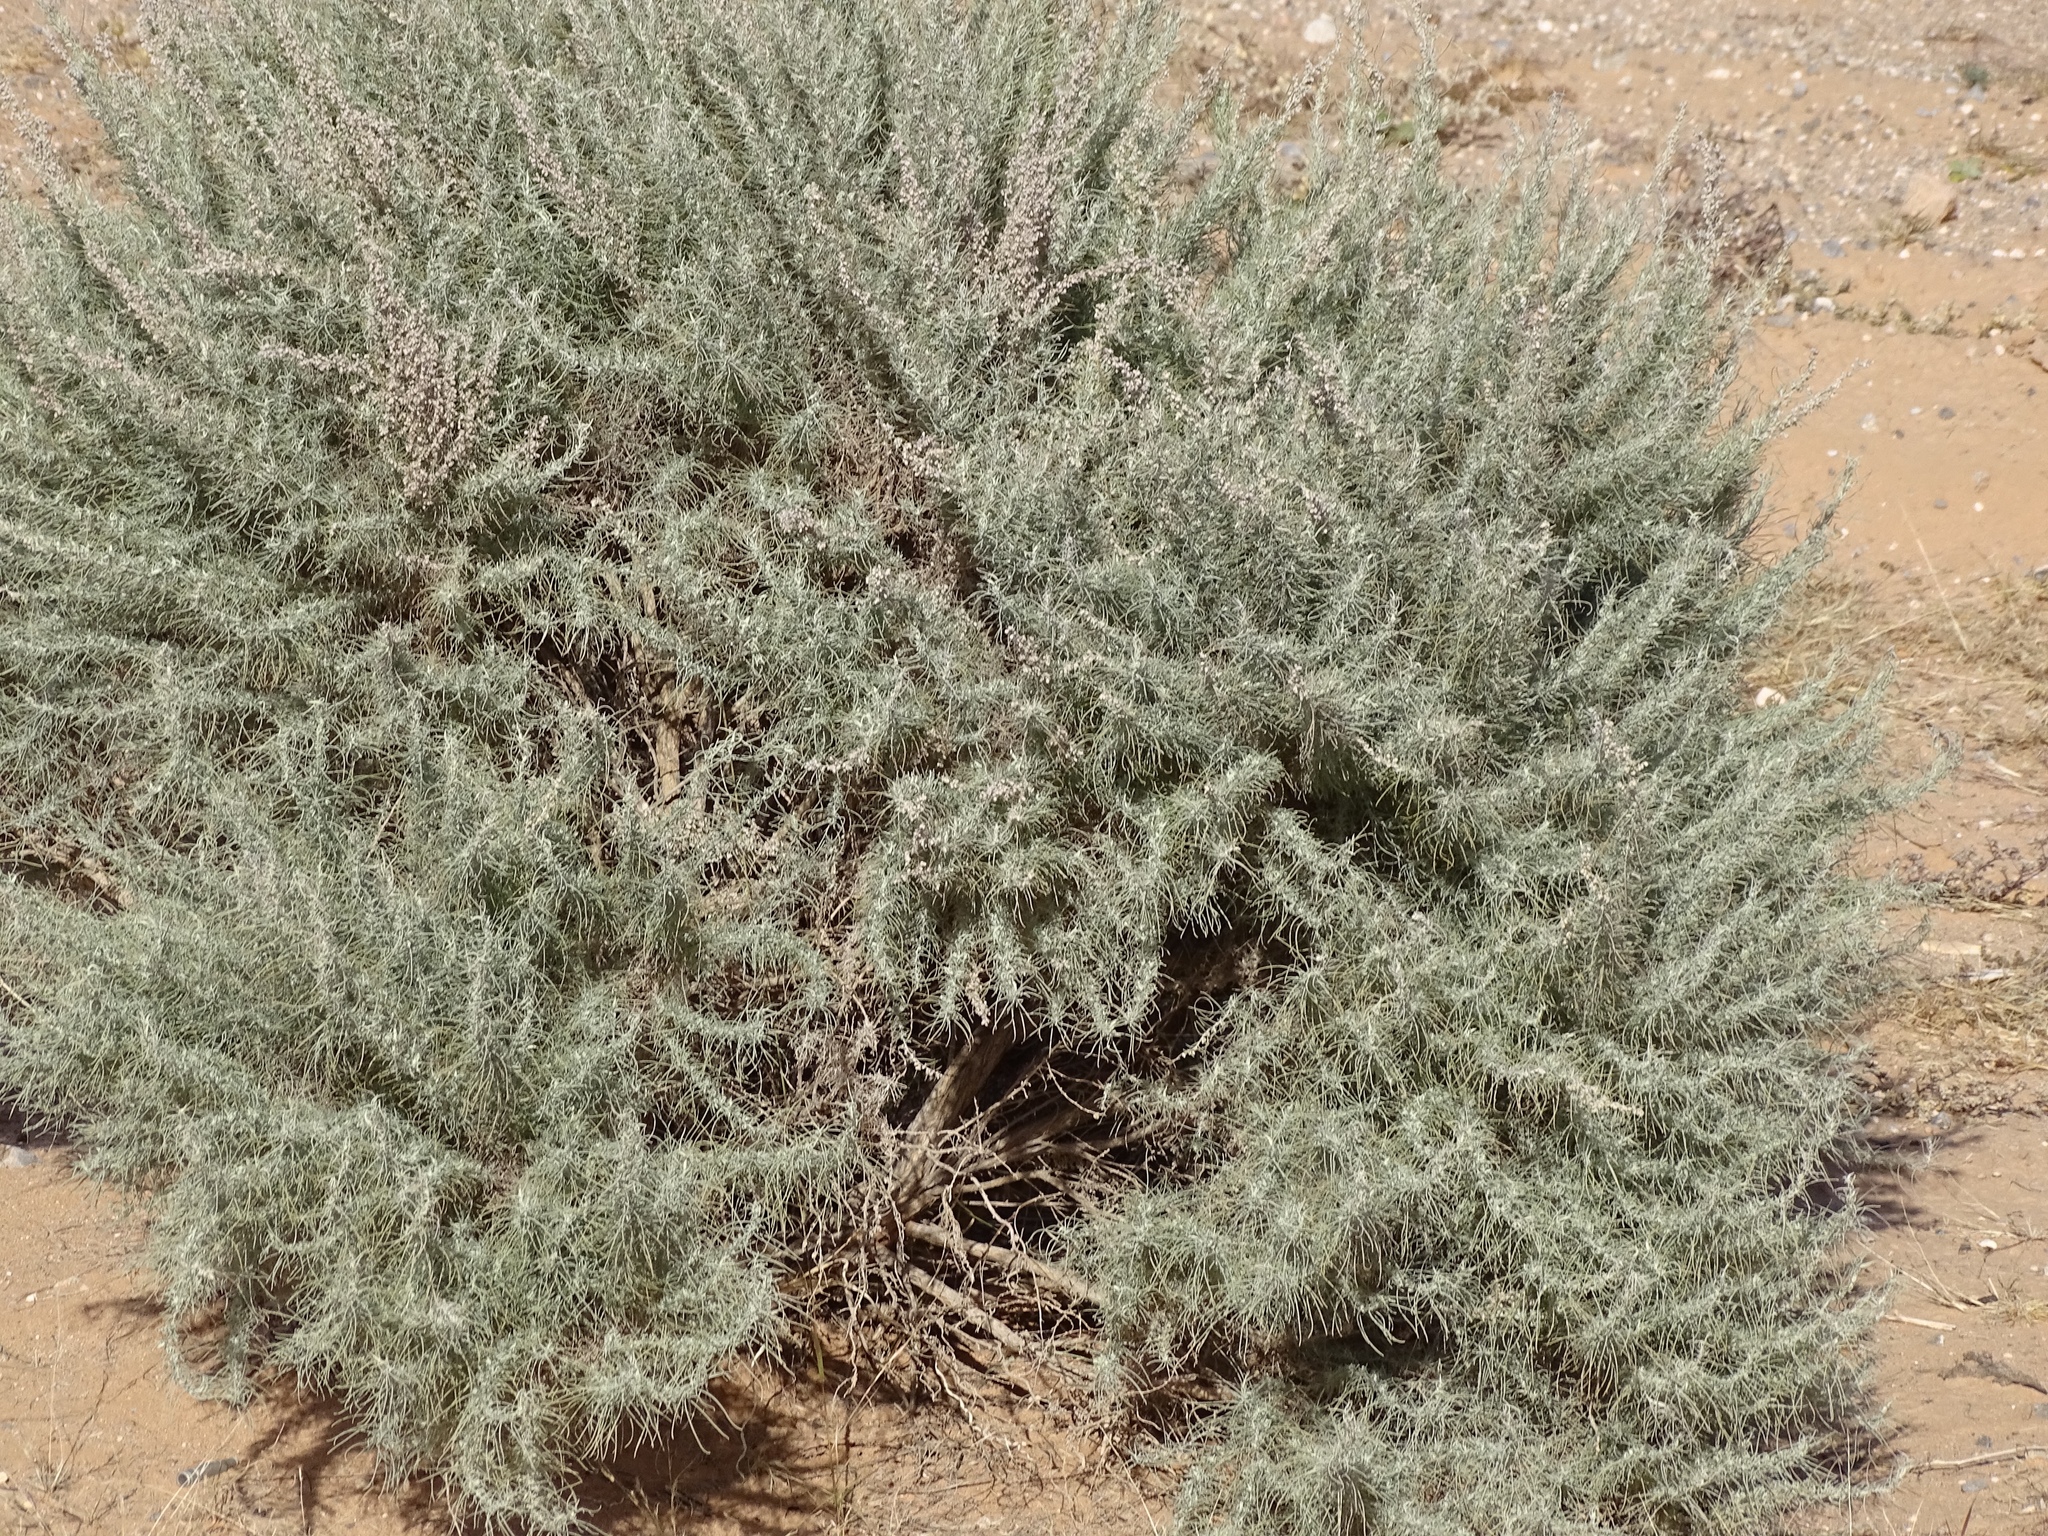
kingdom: Plantae
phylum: Tracheophyta
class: Magnoliopsida
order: Asterales
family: Asteraceae
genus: Artemisia
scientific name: Artemisia filifolia
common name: Sand-sage
